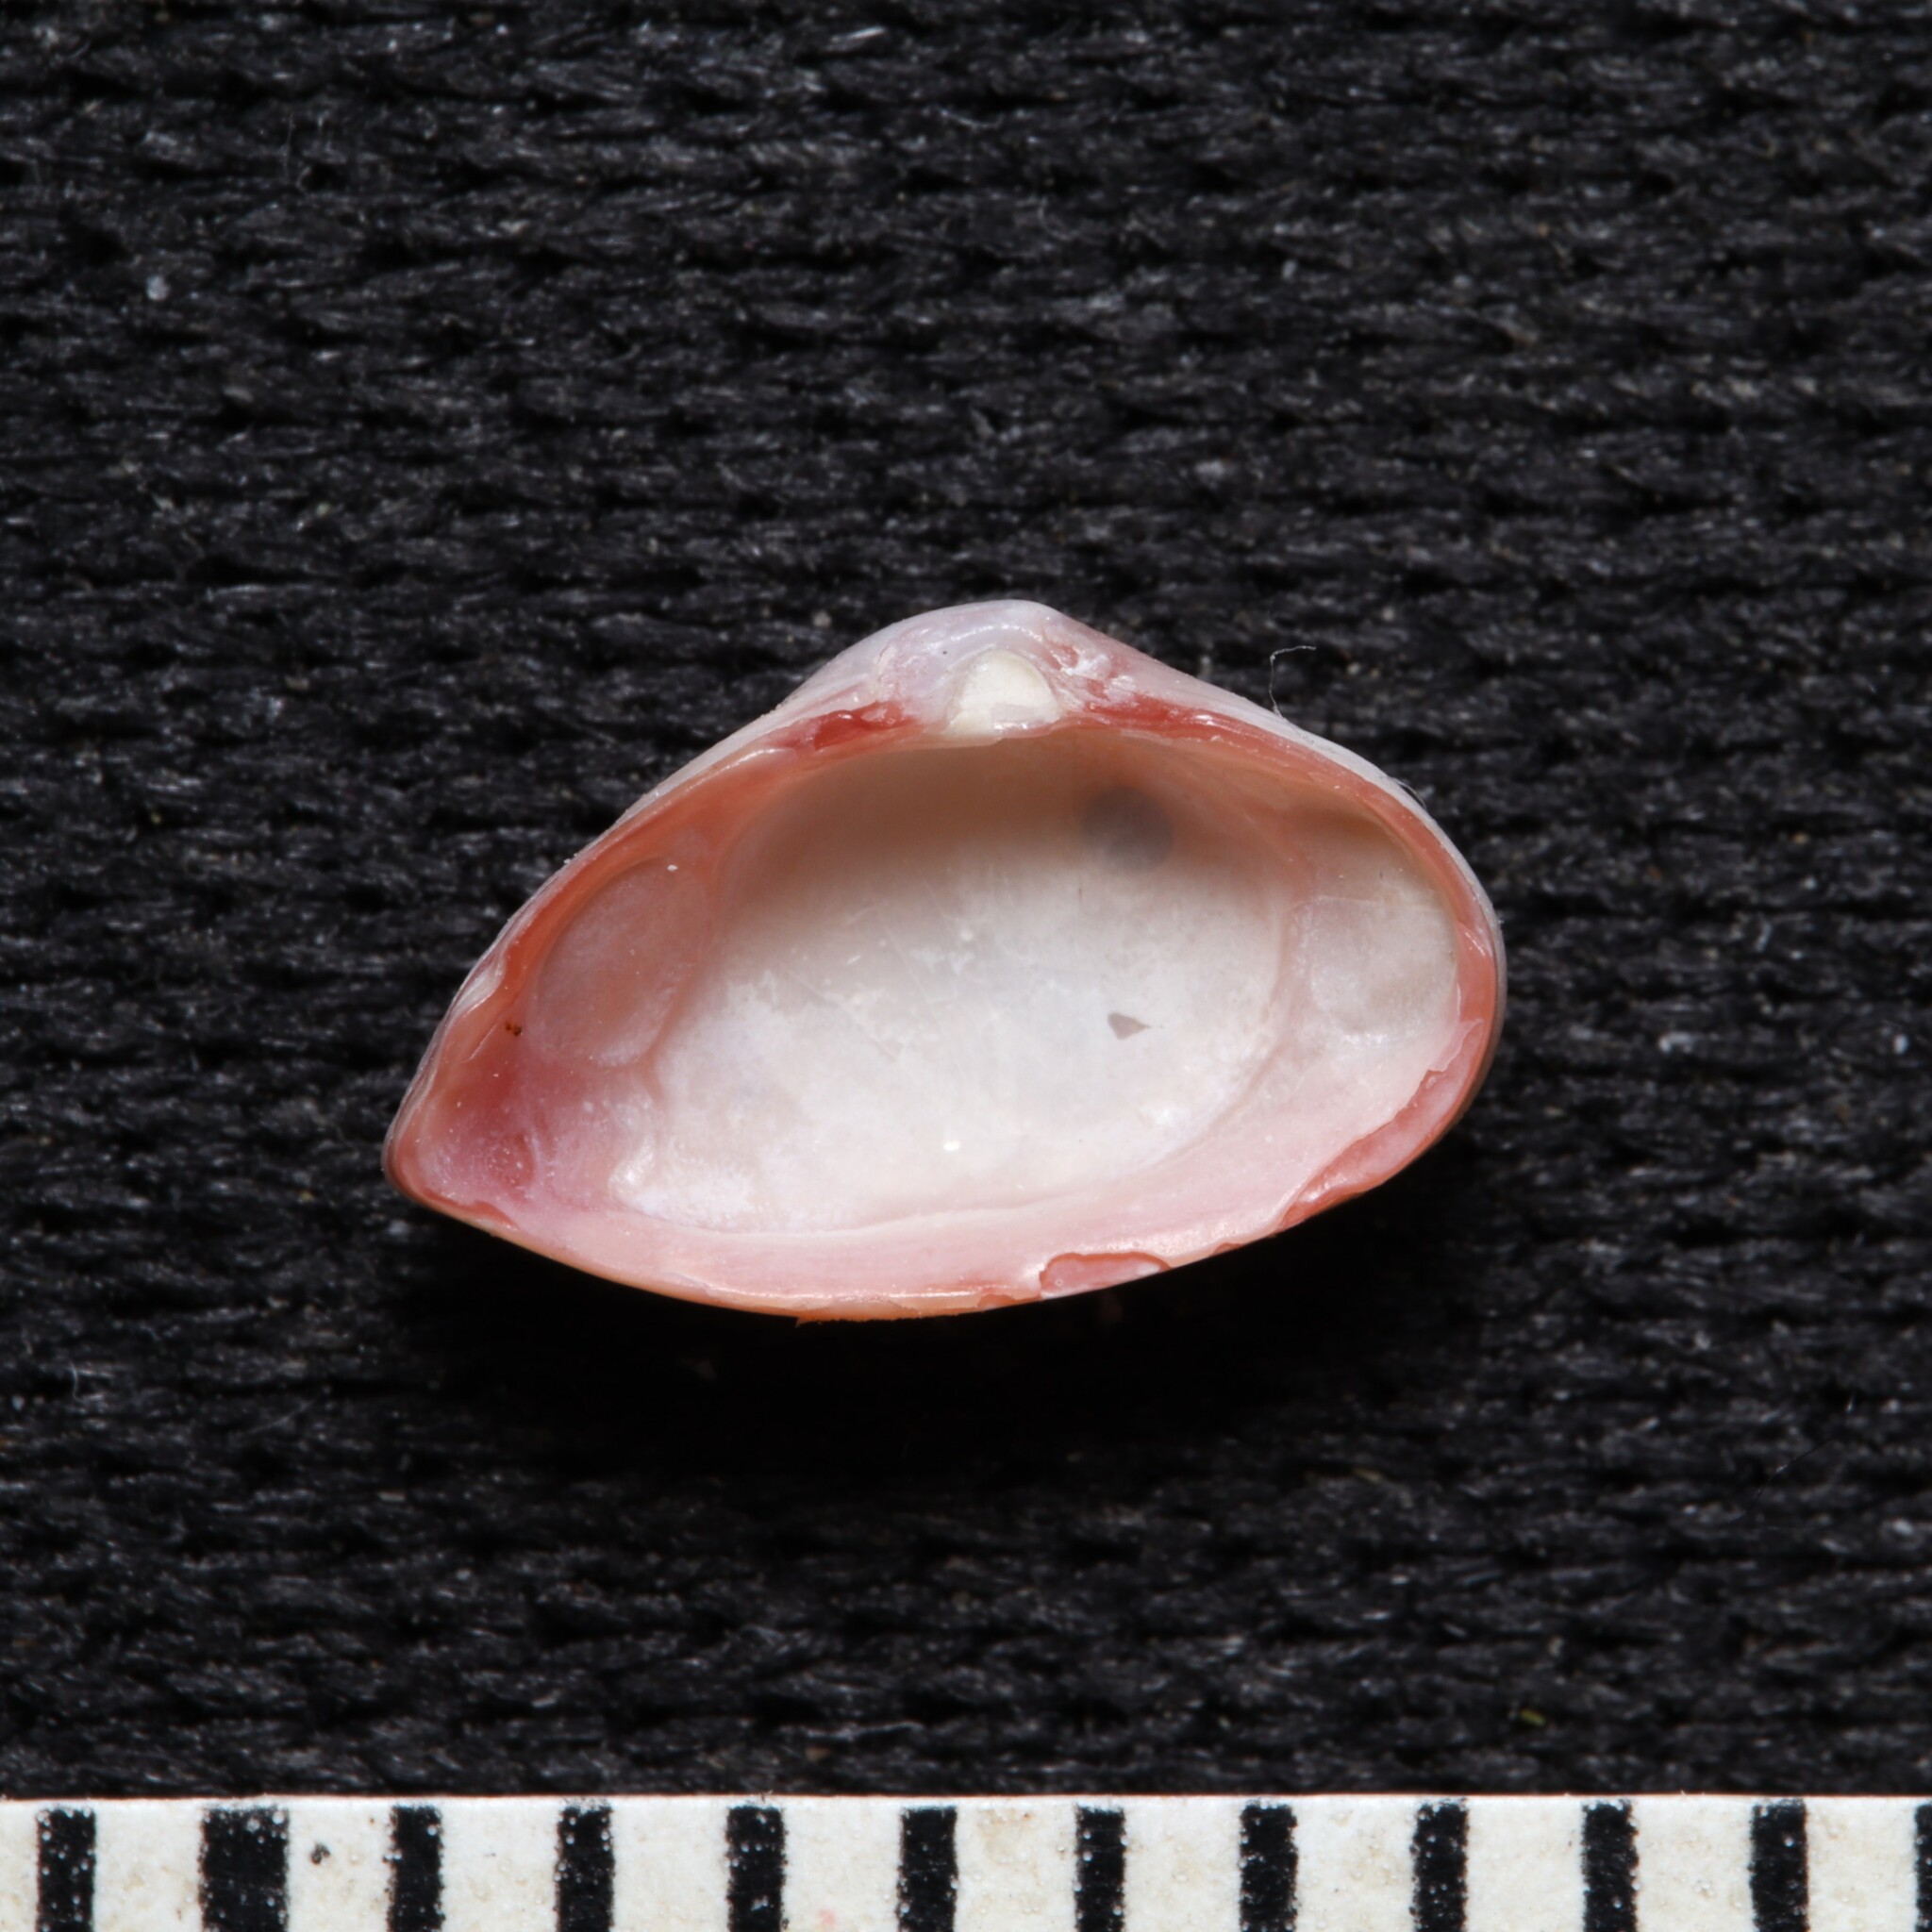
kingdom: Animalia
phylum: Mollusca
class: Bivalvia
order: Myida
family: Corbulidae
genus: Corbula
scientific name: Corbula dietziana
